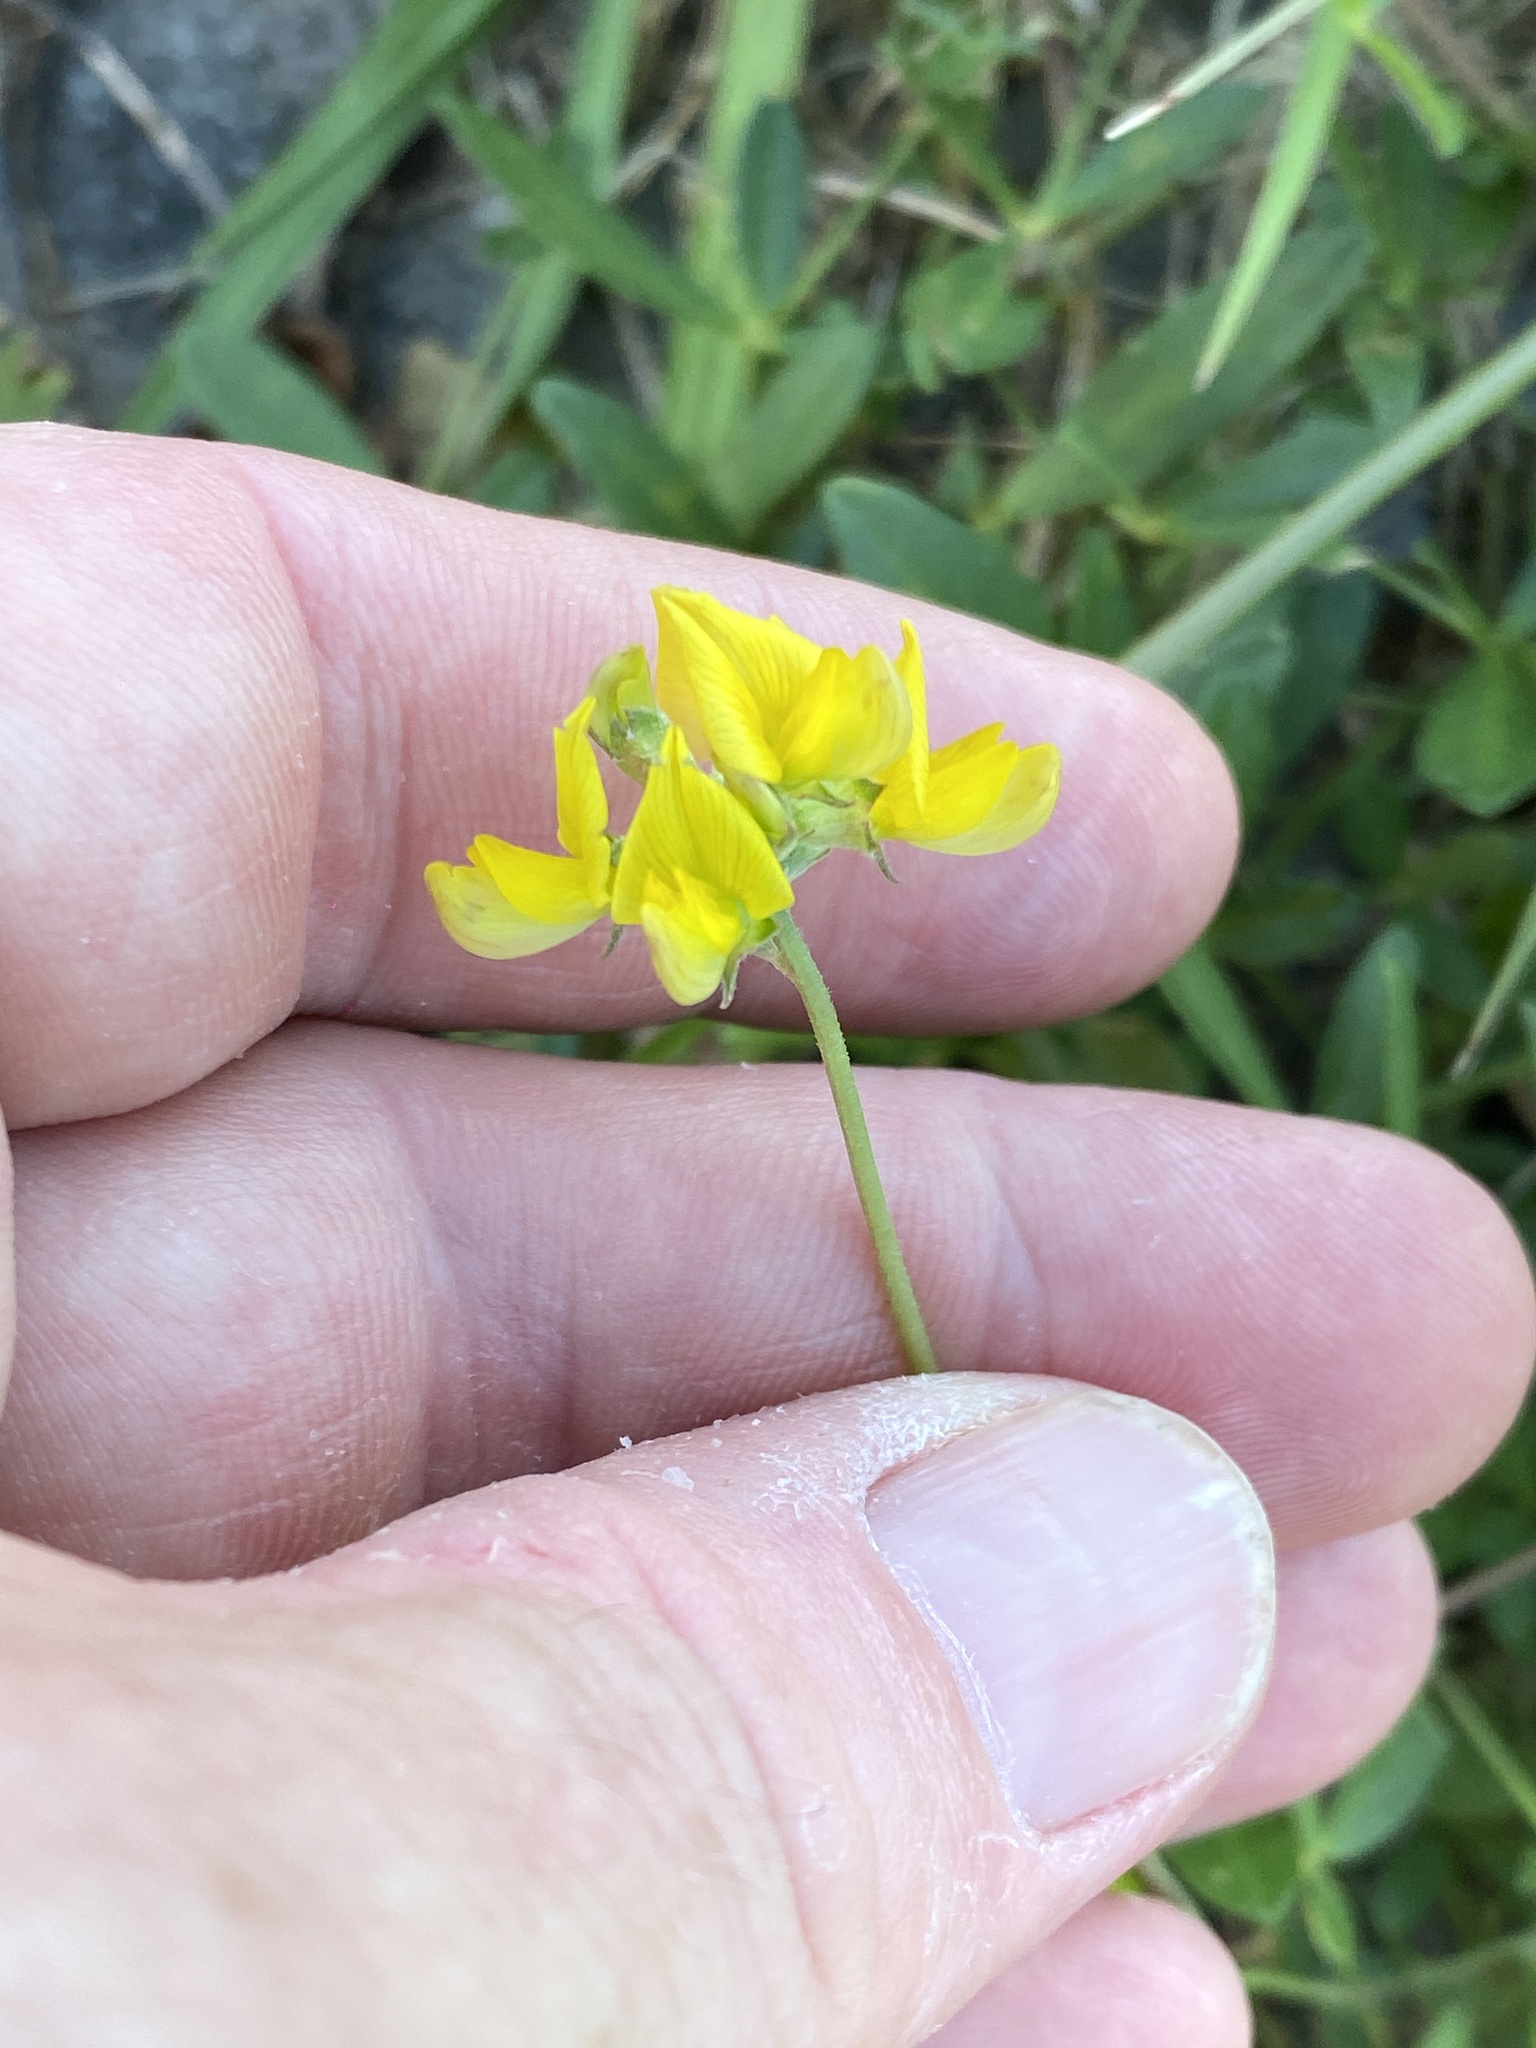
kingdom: Plantae
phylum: Tracheophyta
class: Magnoliopsida
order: Fabales
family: Fabaceae
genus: Listia
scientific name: Listia bainesii
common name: Lotononis
